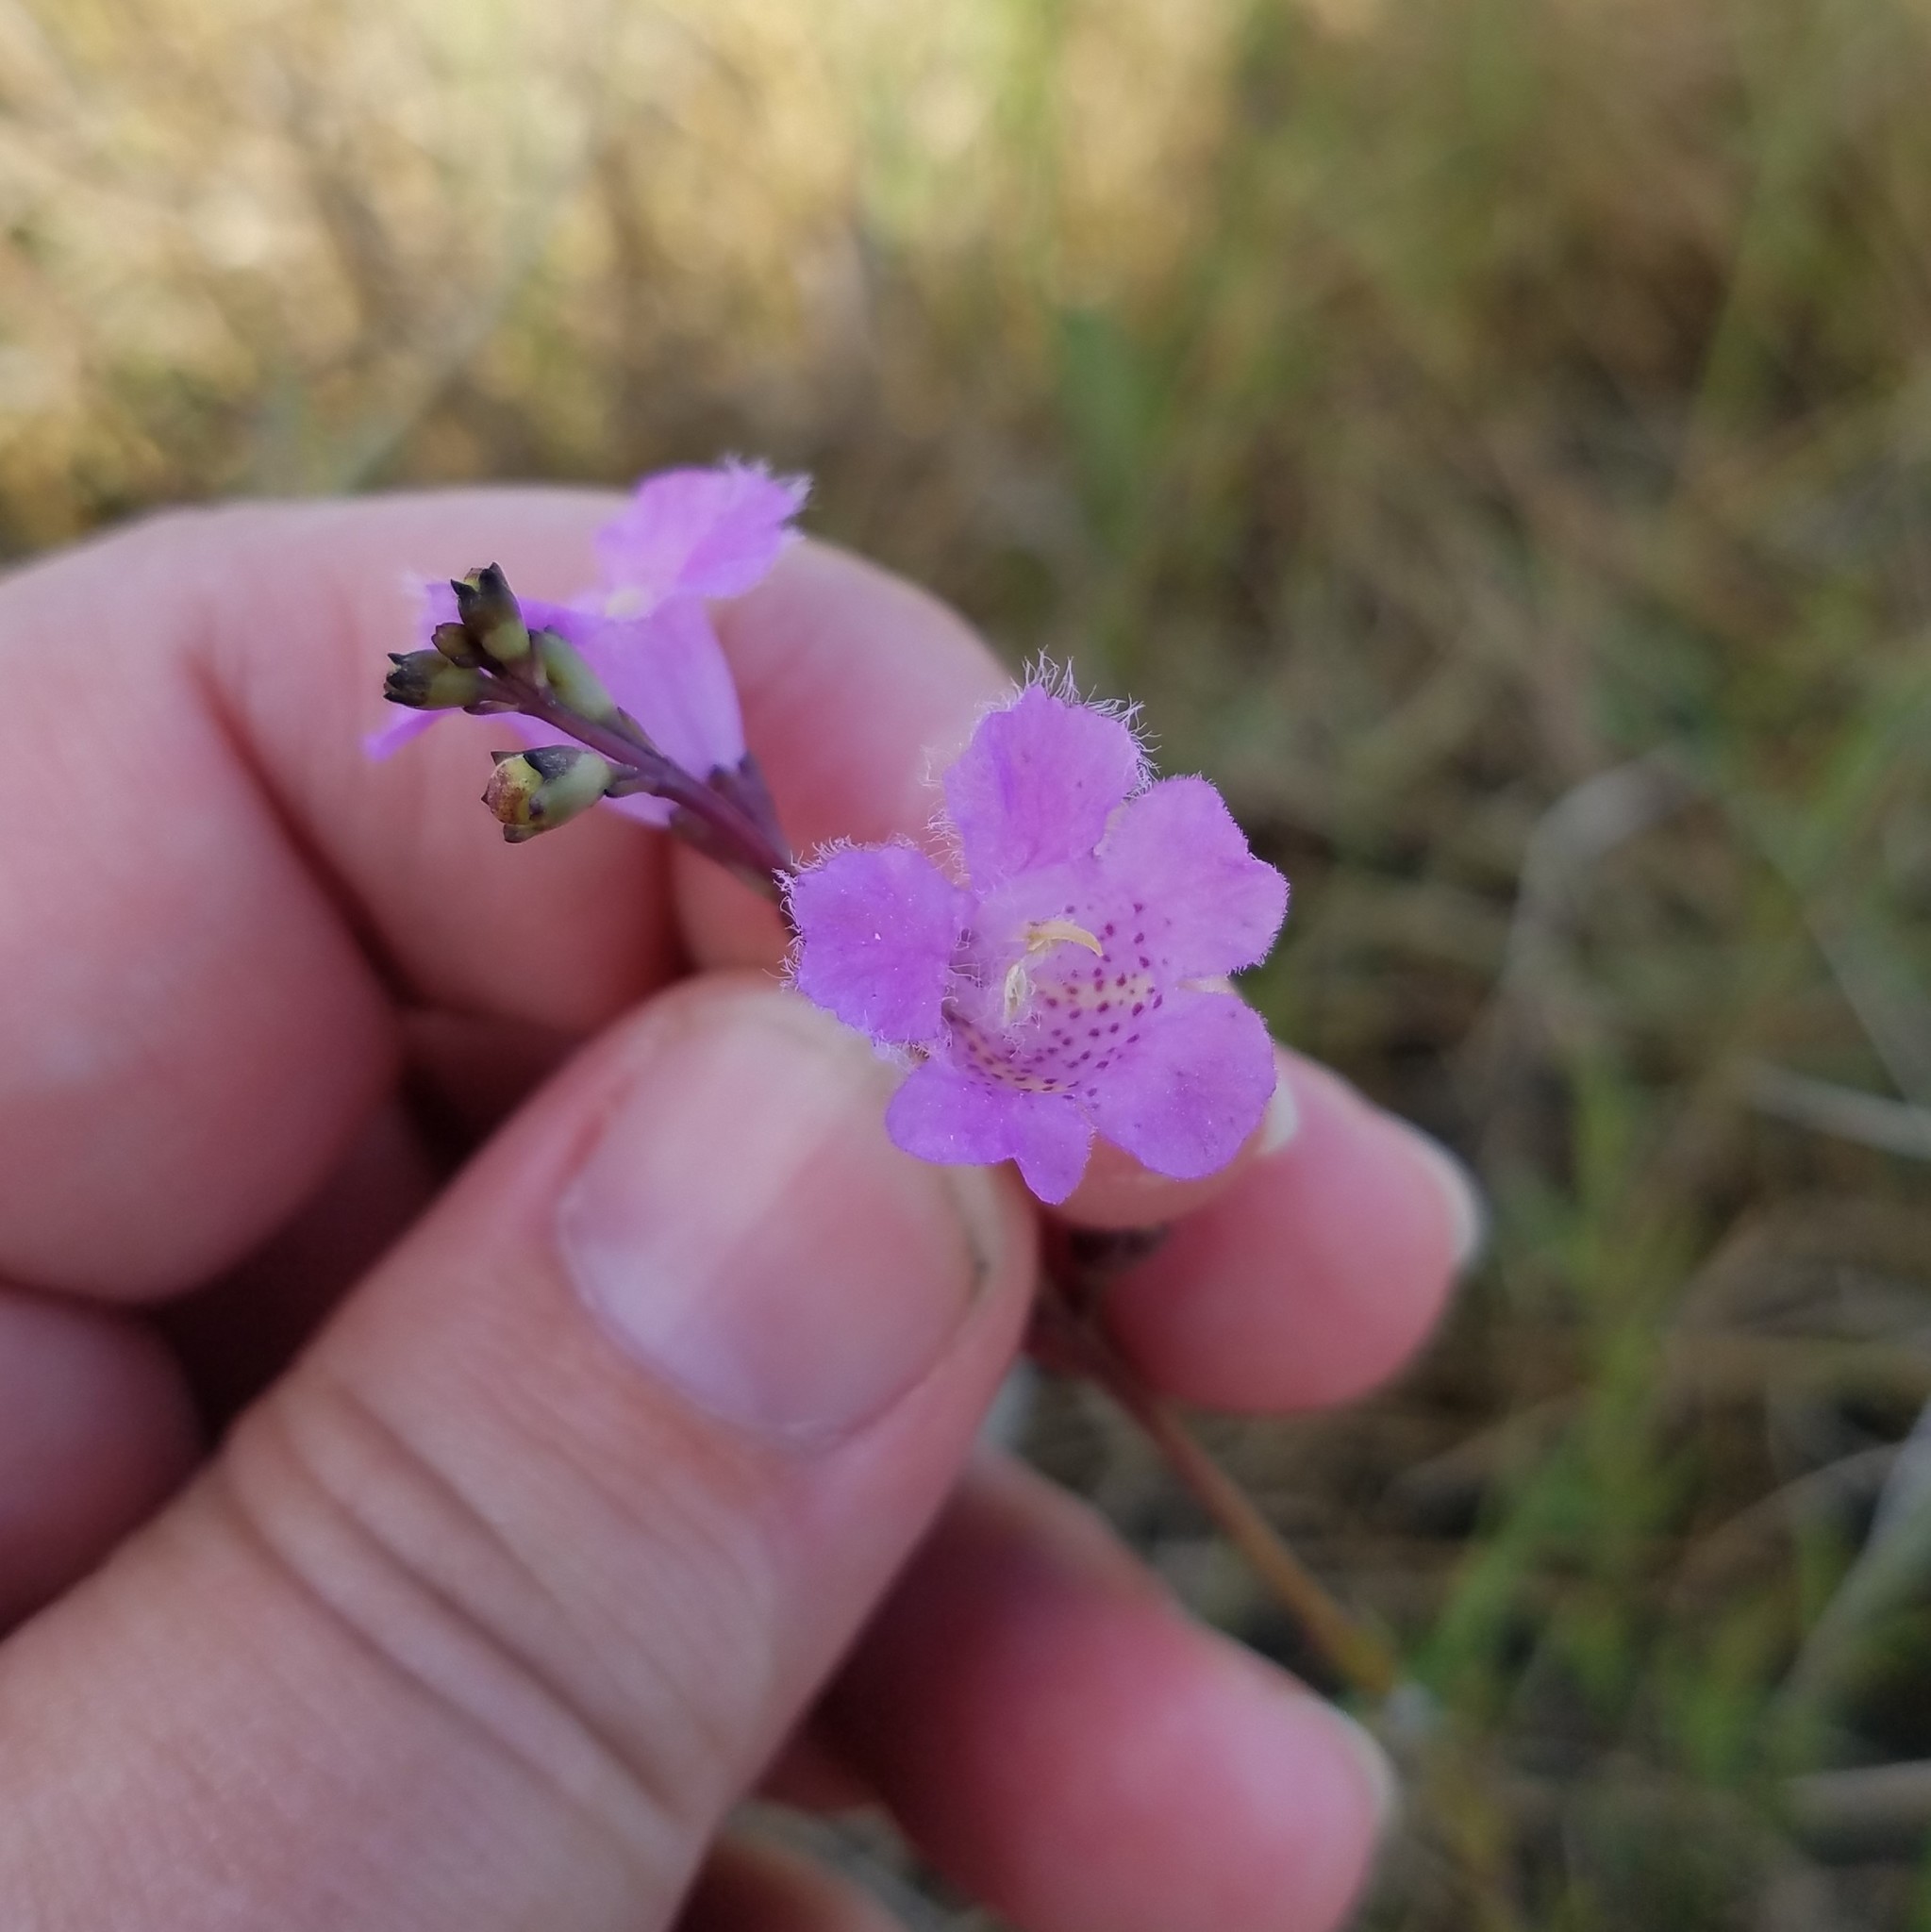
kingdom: Plantae
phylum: Tracheophyta
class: Magnoliopsida
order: Lamiales
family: Orobanchaceae
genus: Agalinis
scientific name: Agalinis maritima
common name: Saltmarsh agalinis
